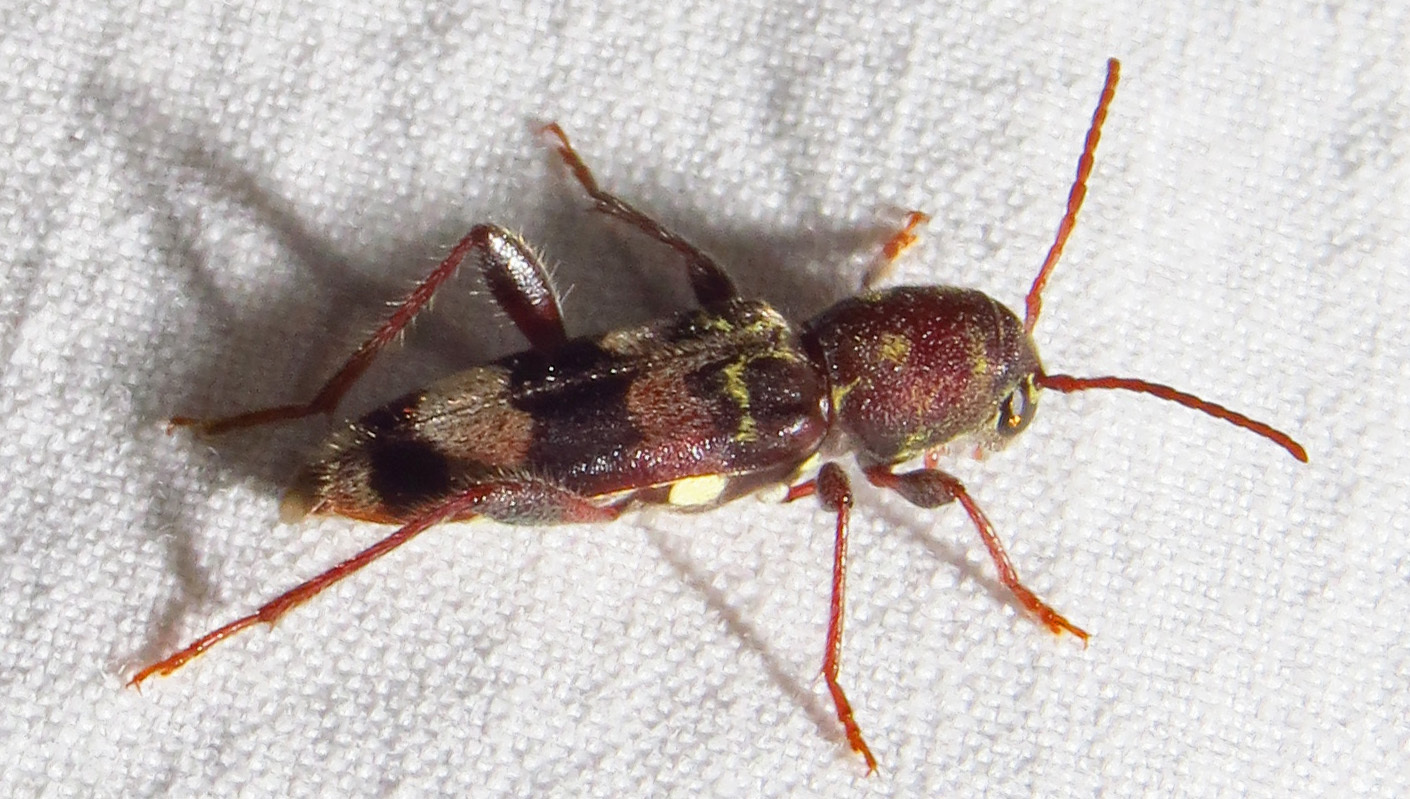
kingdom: Animalia
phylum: Arthropoda
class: Insecta
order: Coleoptera
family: Cerambycidae
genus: Xylotrechus
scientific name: Xylotrechus colonus
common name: Long-horned beetle
